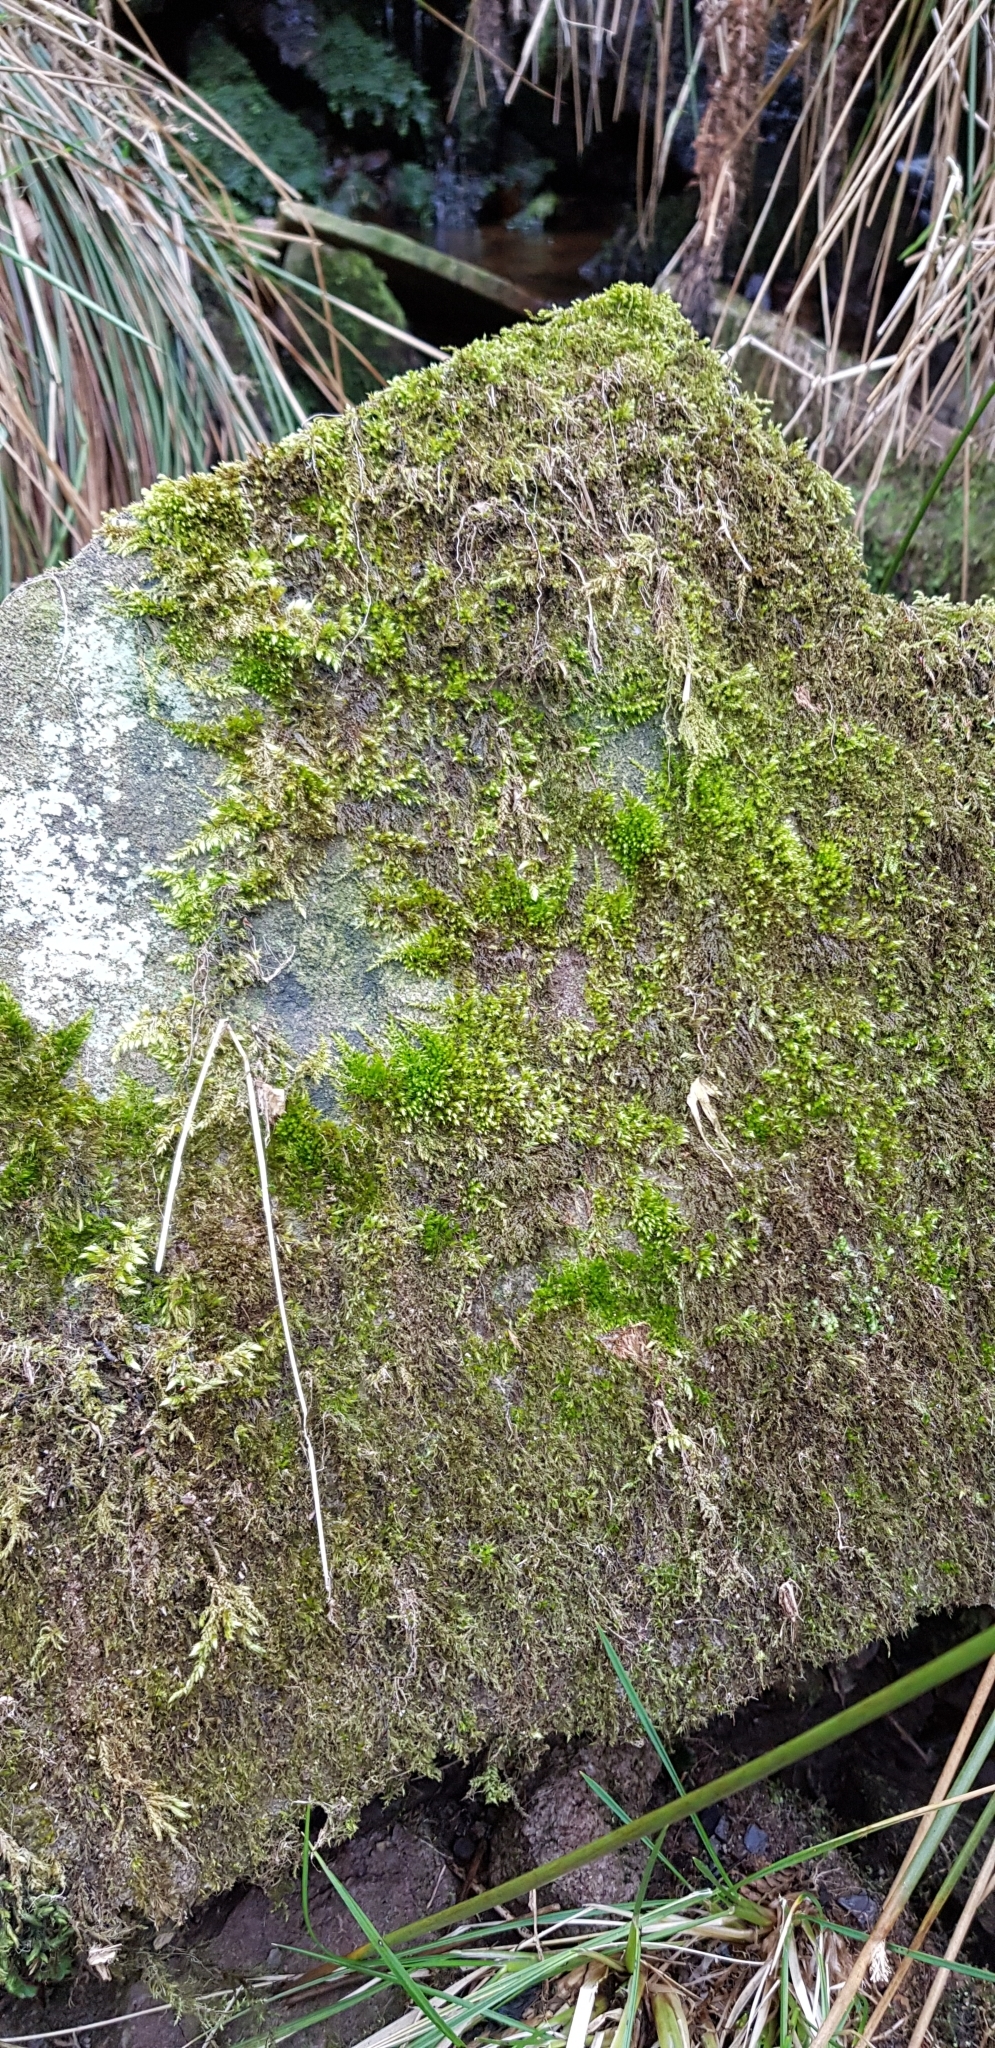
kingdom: Plantae
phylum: Bryophyta
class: Bryopsida
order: Hypnales
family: Brachytheciaceae
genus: Sciuro-hypnum
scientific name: Sciuro-hypnum plumosum
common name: Rusty feather-moss
